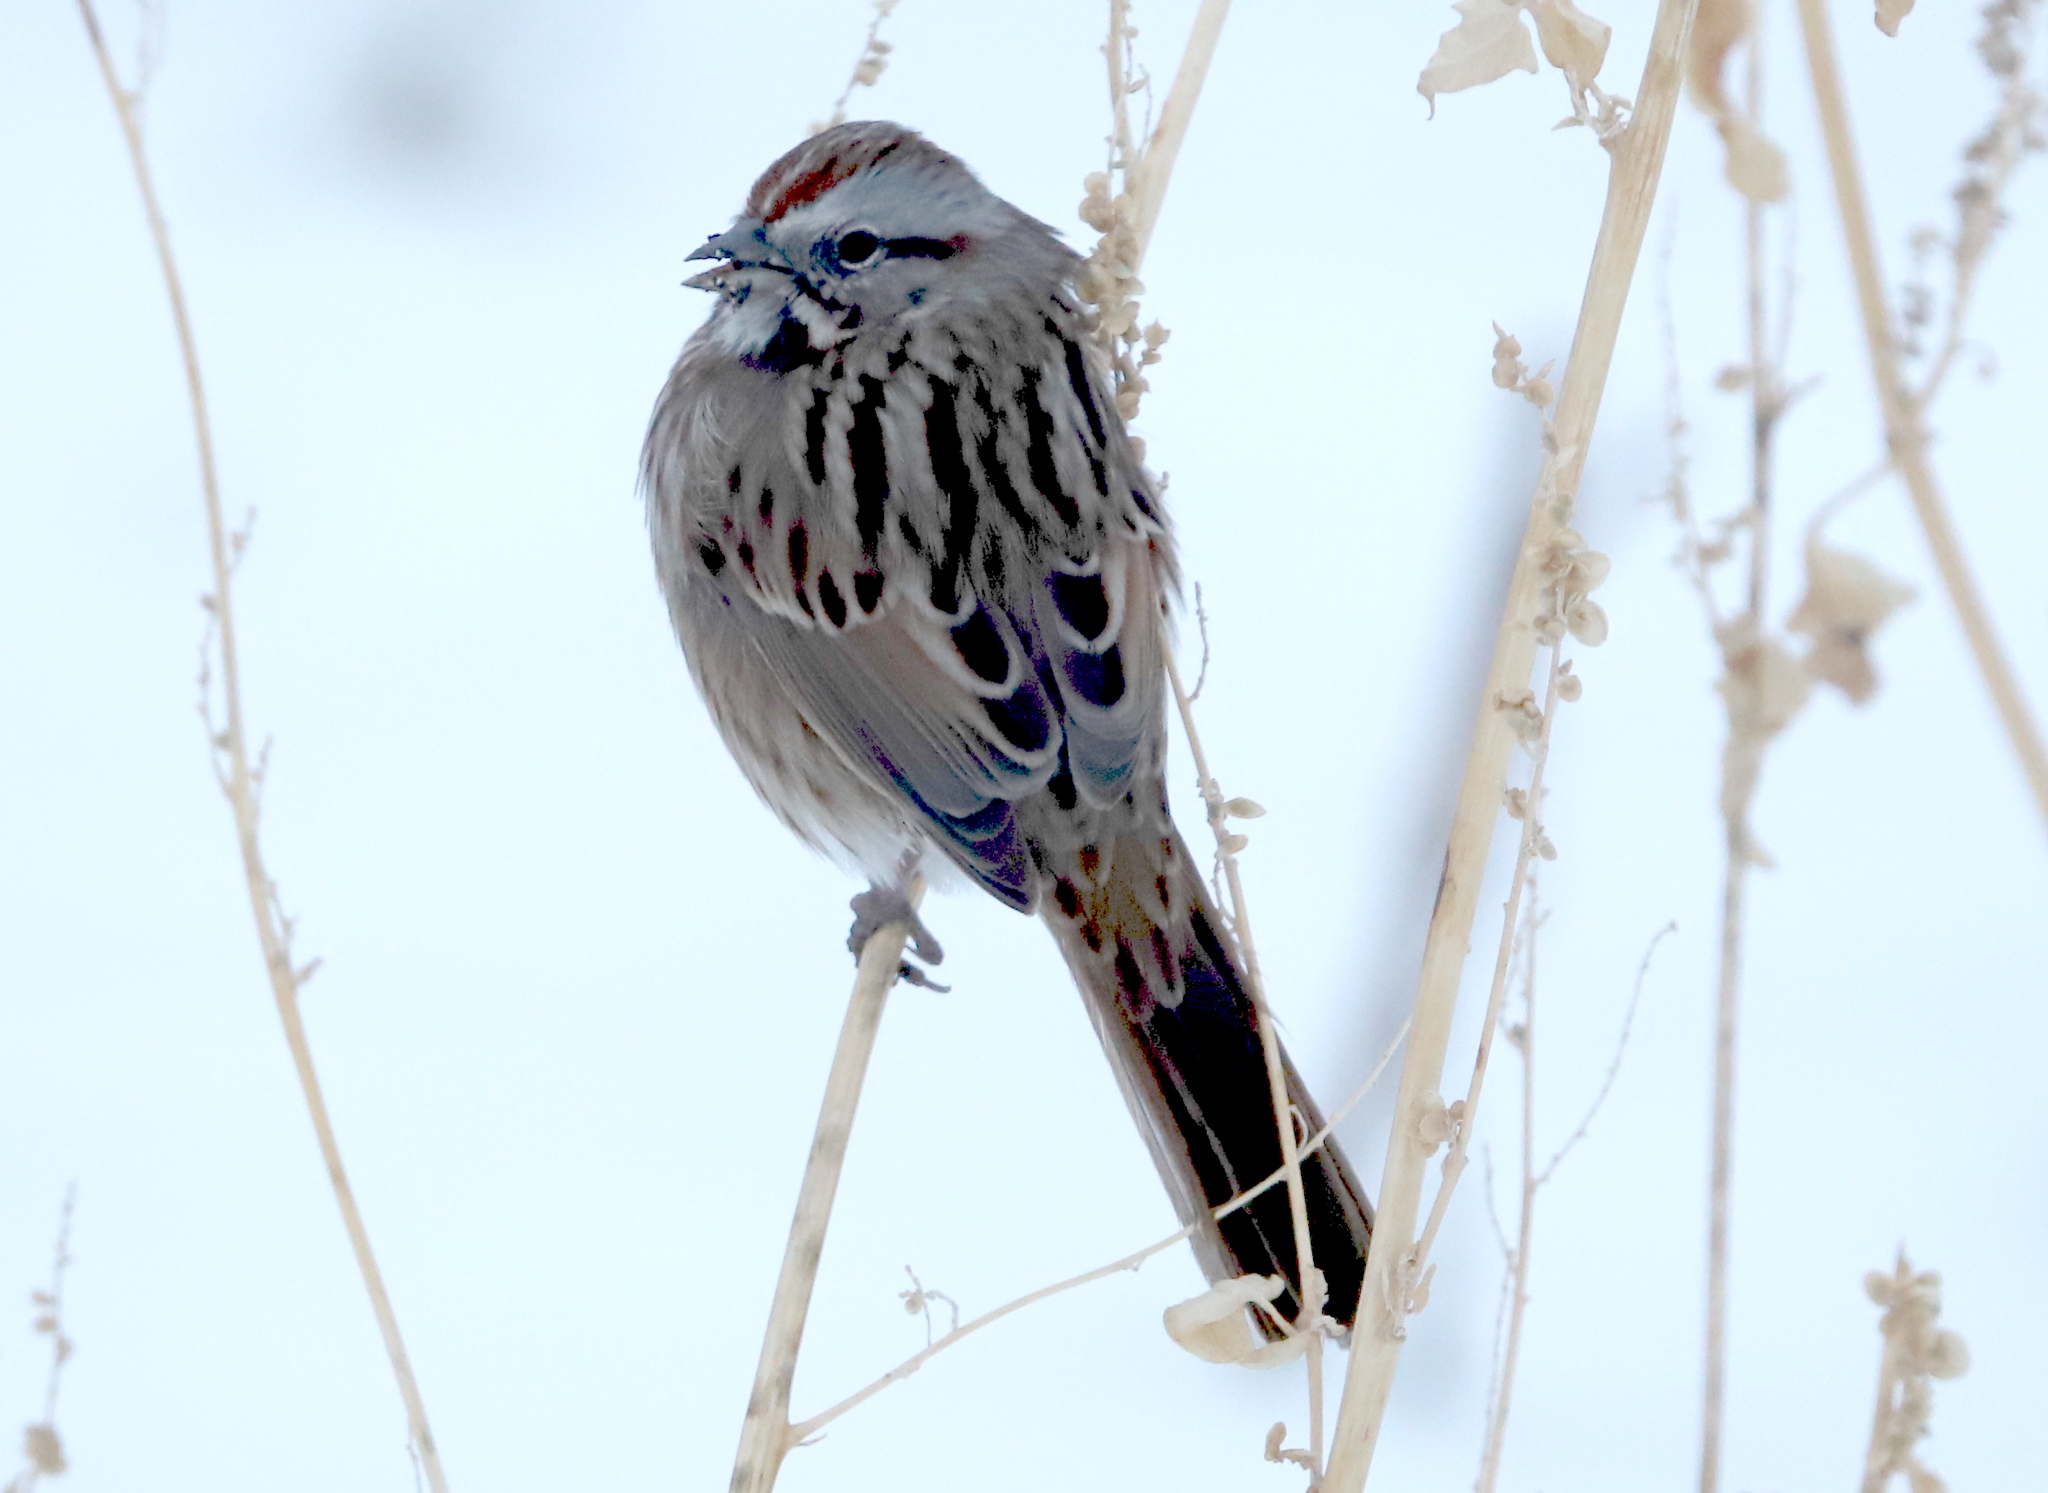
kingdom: Animalia
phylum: Chordata
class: Aves
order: Passeriformes
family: Passerellidae
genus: Melospiza
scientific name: Melospiza melodia
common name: Song sparrow
